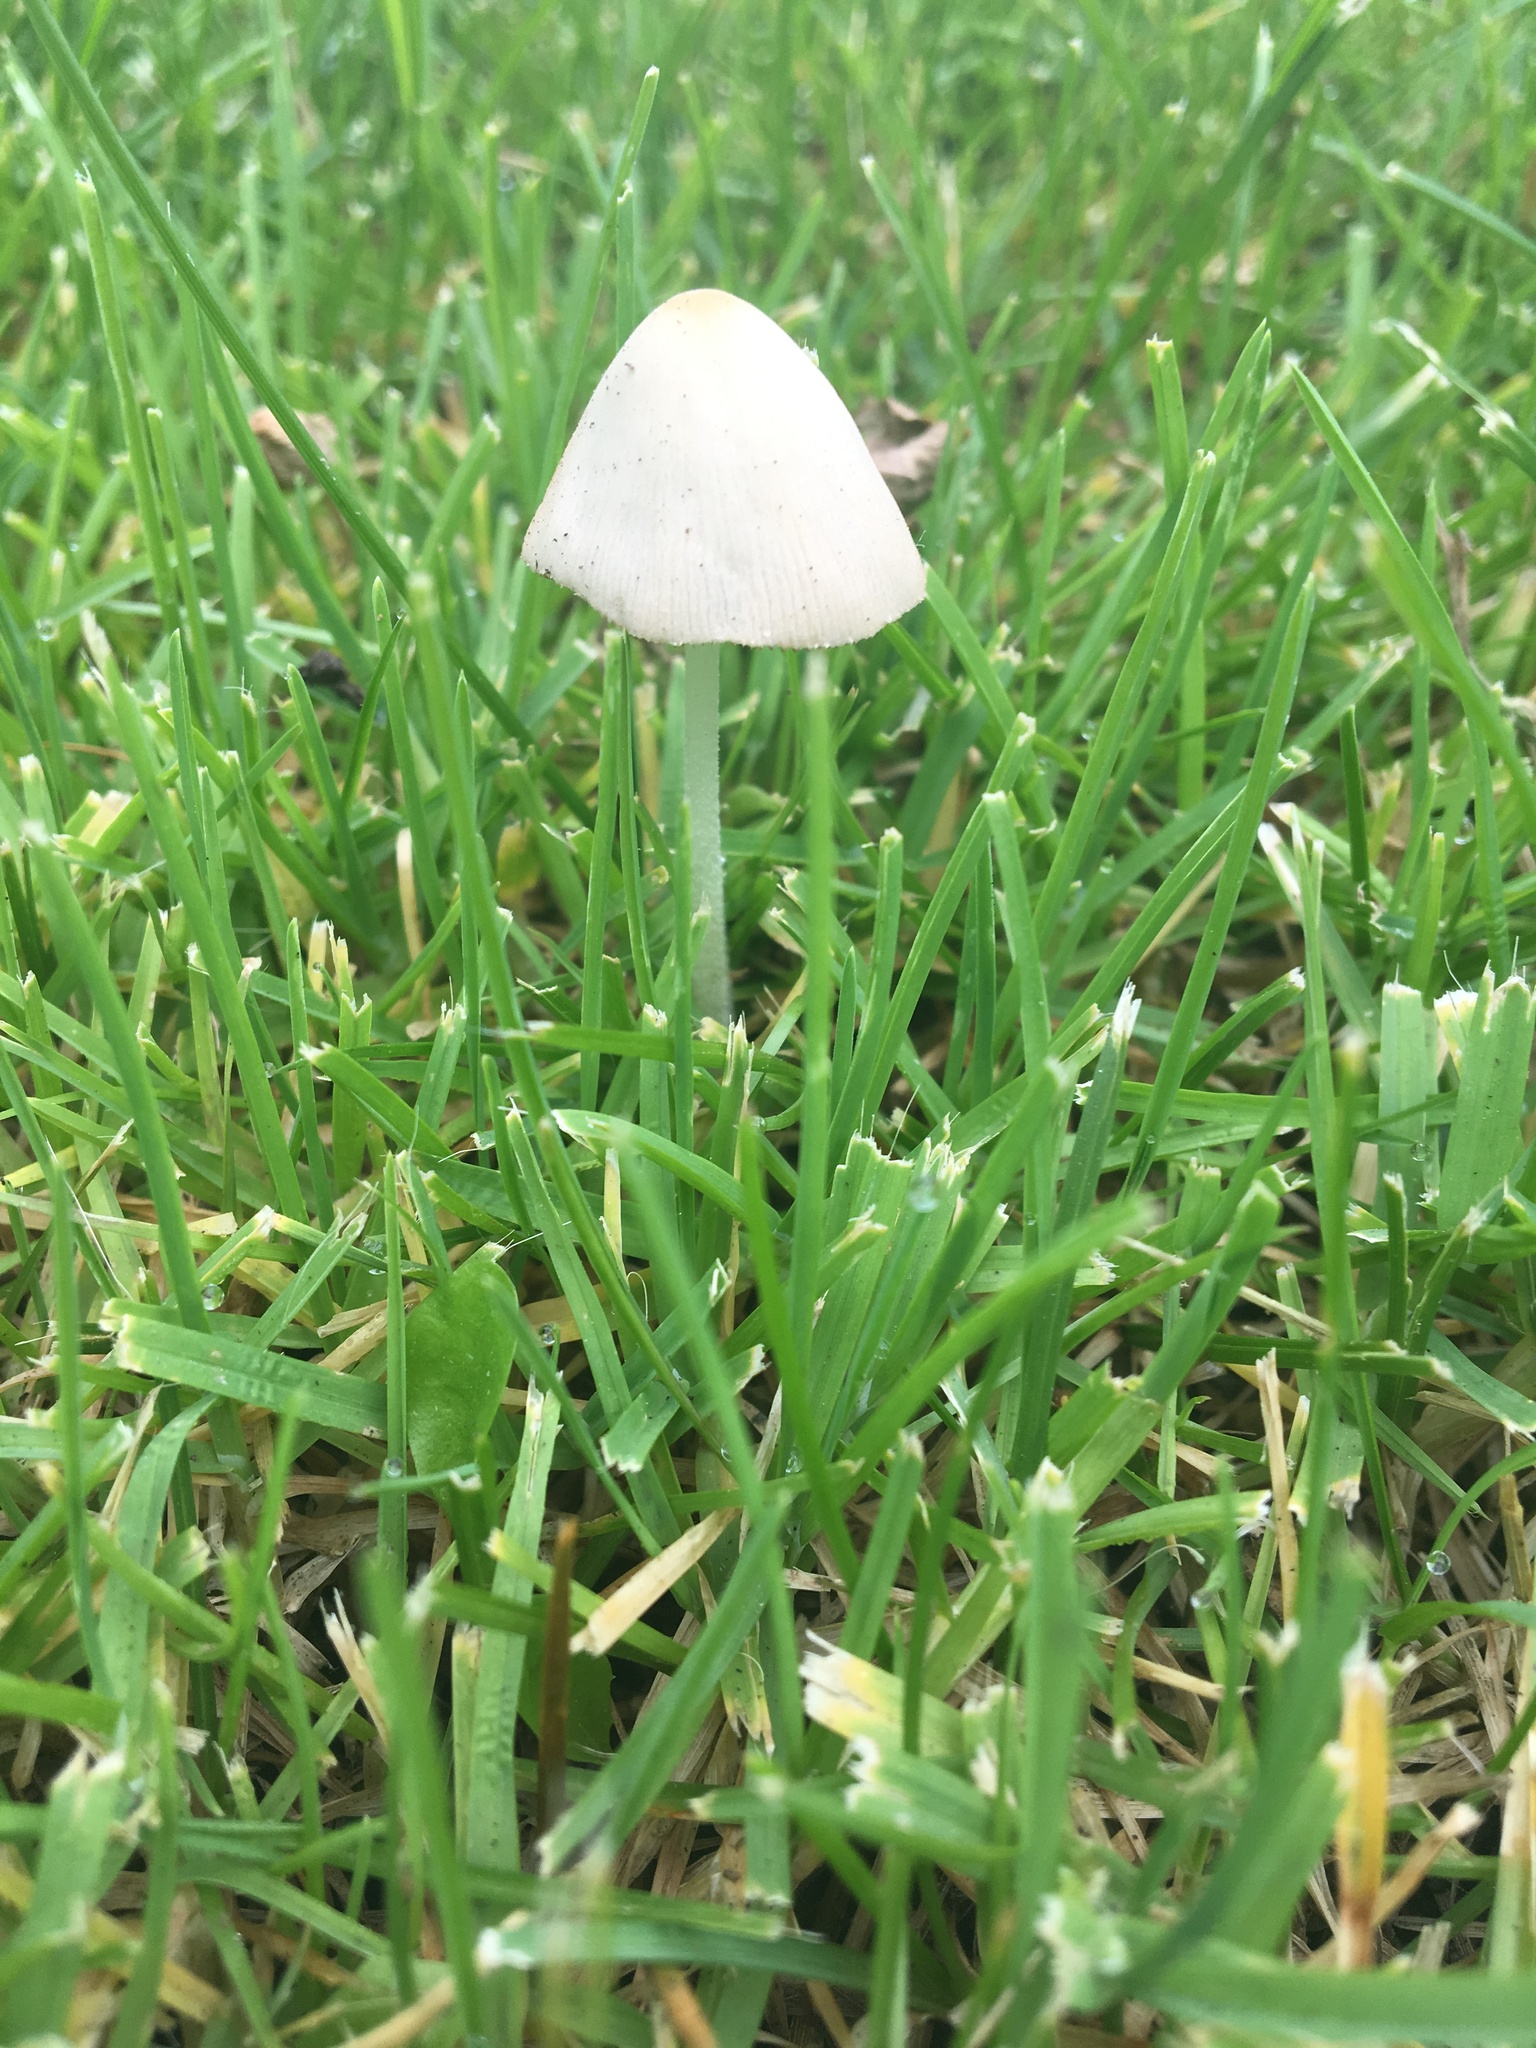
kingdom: Fungi
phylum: Basidiomycota
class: Agaricomycetes
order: Agaricales
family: Bolbitiaceae
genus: Conocybe
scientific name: Conocybe apala
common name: Milky conecap
